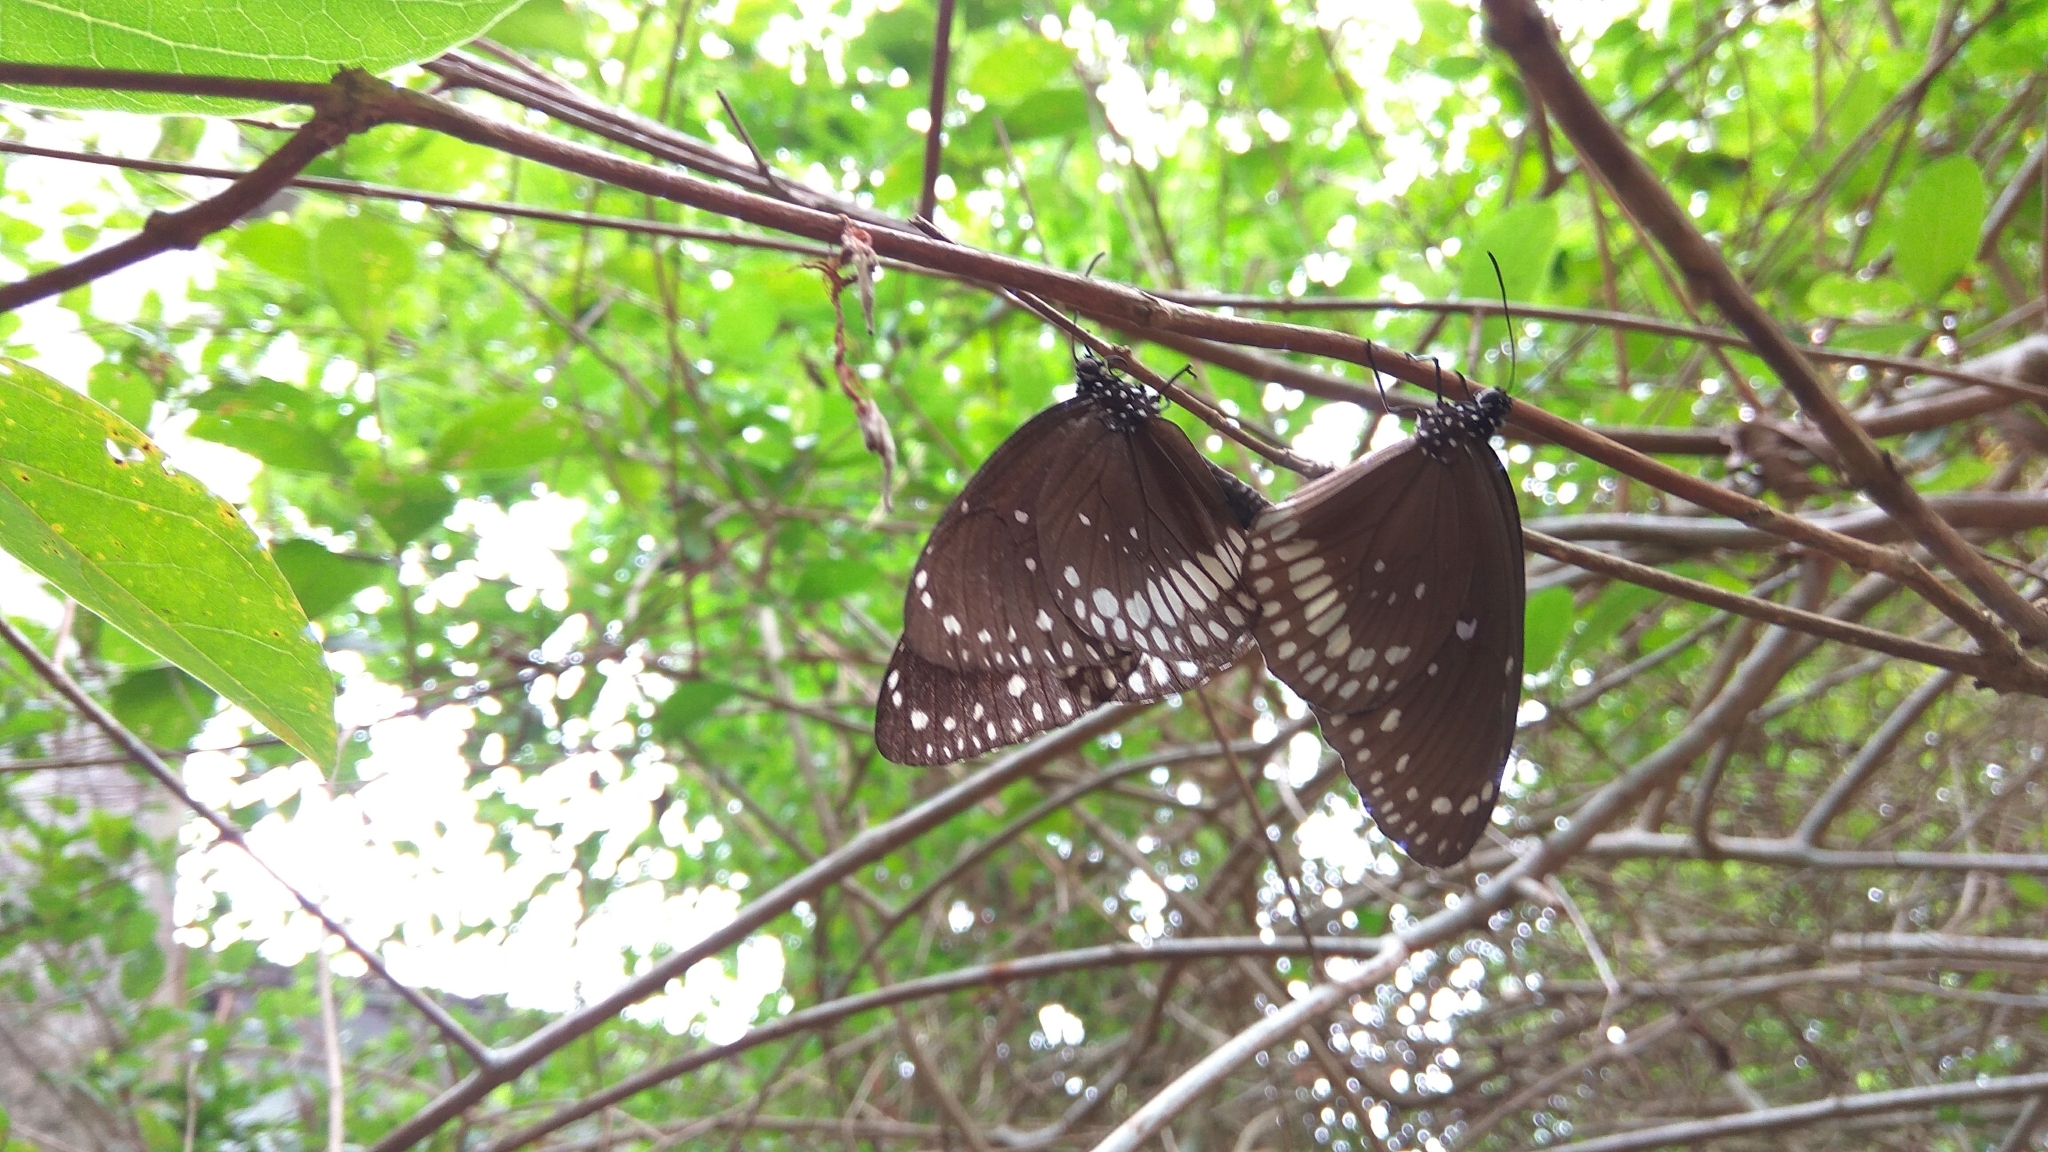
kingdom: Animalia
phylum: Arthropoda
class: Insecta
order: Lepidoptera
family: Nymphalidae
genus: Euploea
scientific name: Euploea core
